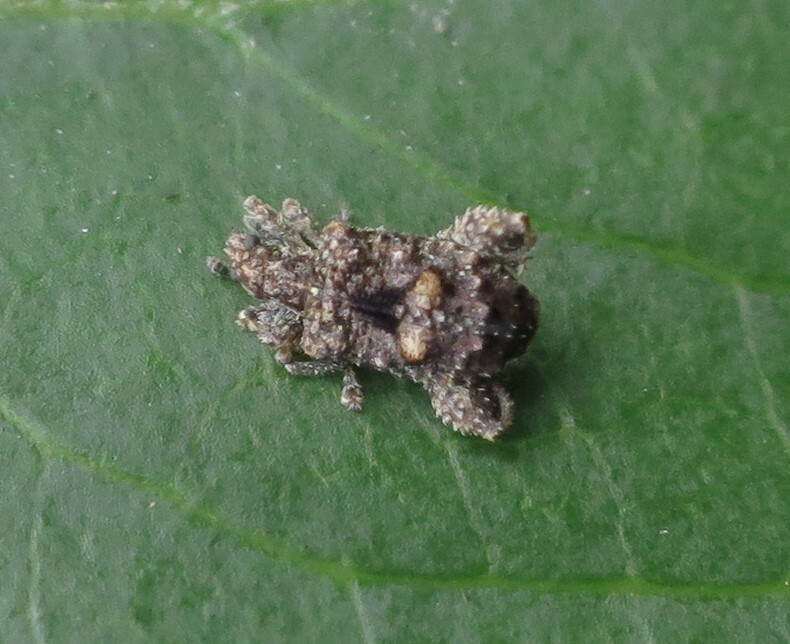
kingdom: Animalia
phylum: Arthropoda
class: Insecta
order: Coleoptera
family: Curculionidae
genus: Pactola
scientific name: Pactola variabilis
